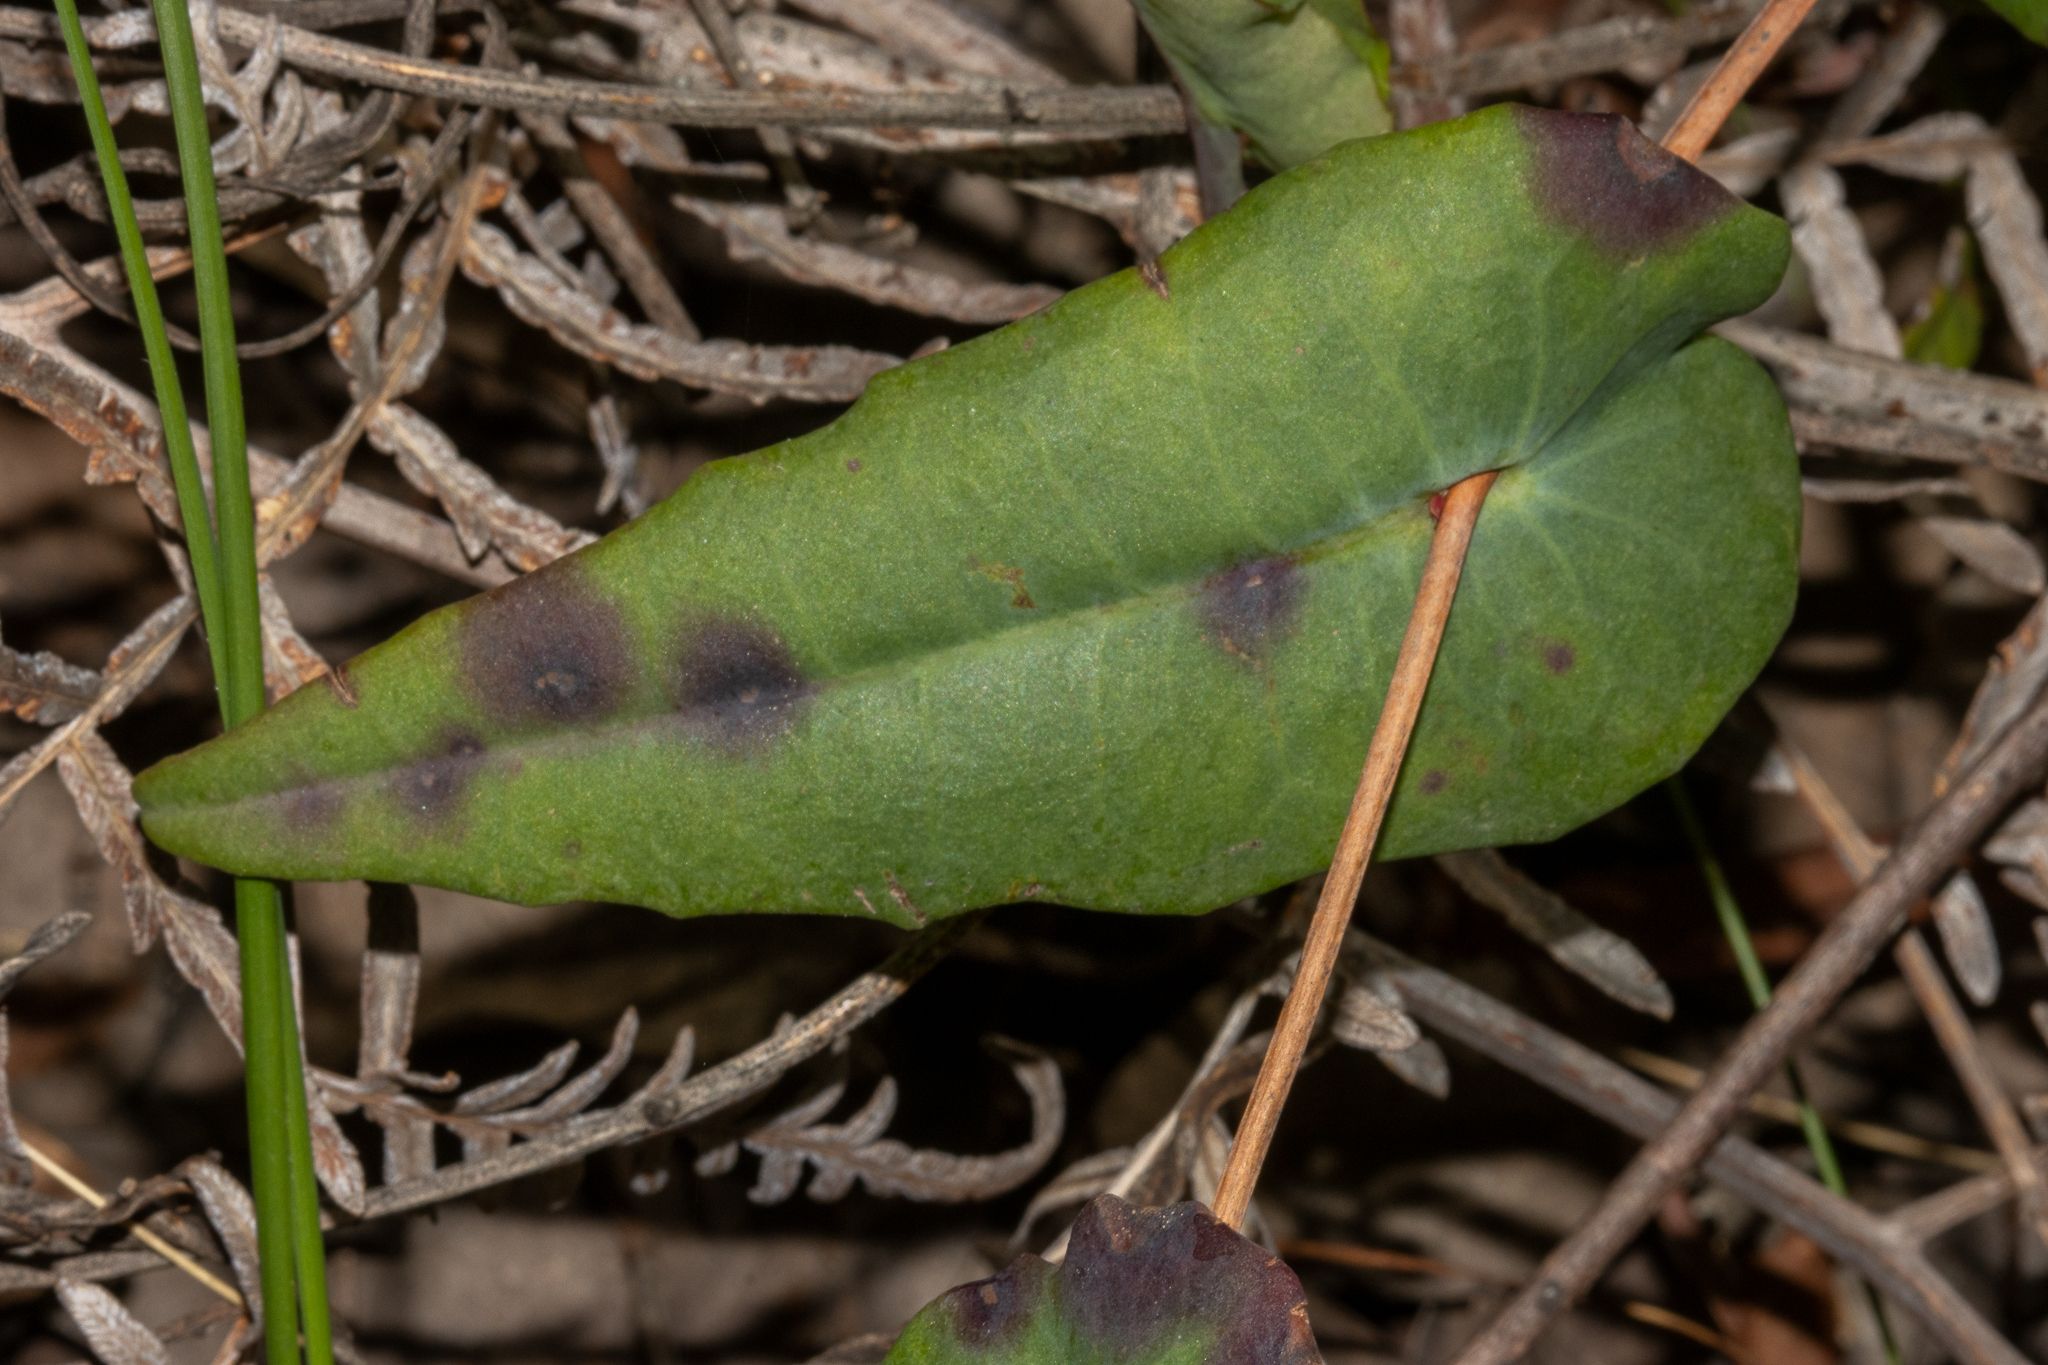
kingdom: Plantae
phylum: Tracheophyta
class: Magnoliopsida
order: Dilleniales
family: Dilleniaceae
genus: Hibbertia
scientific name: Hibbertia cunninghamii
